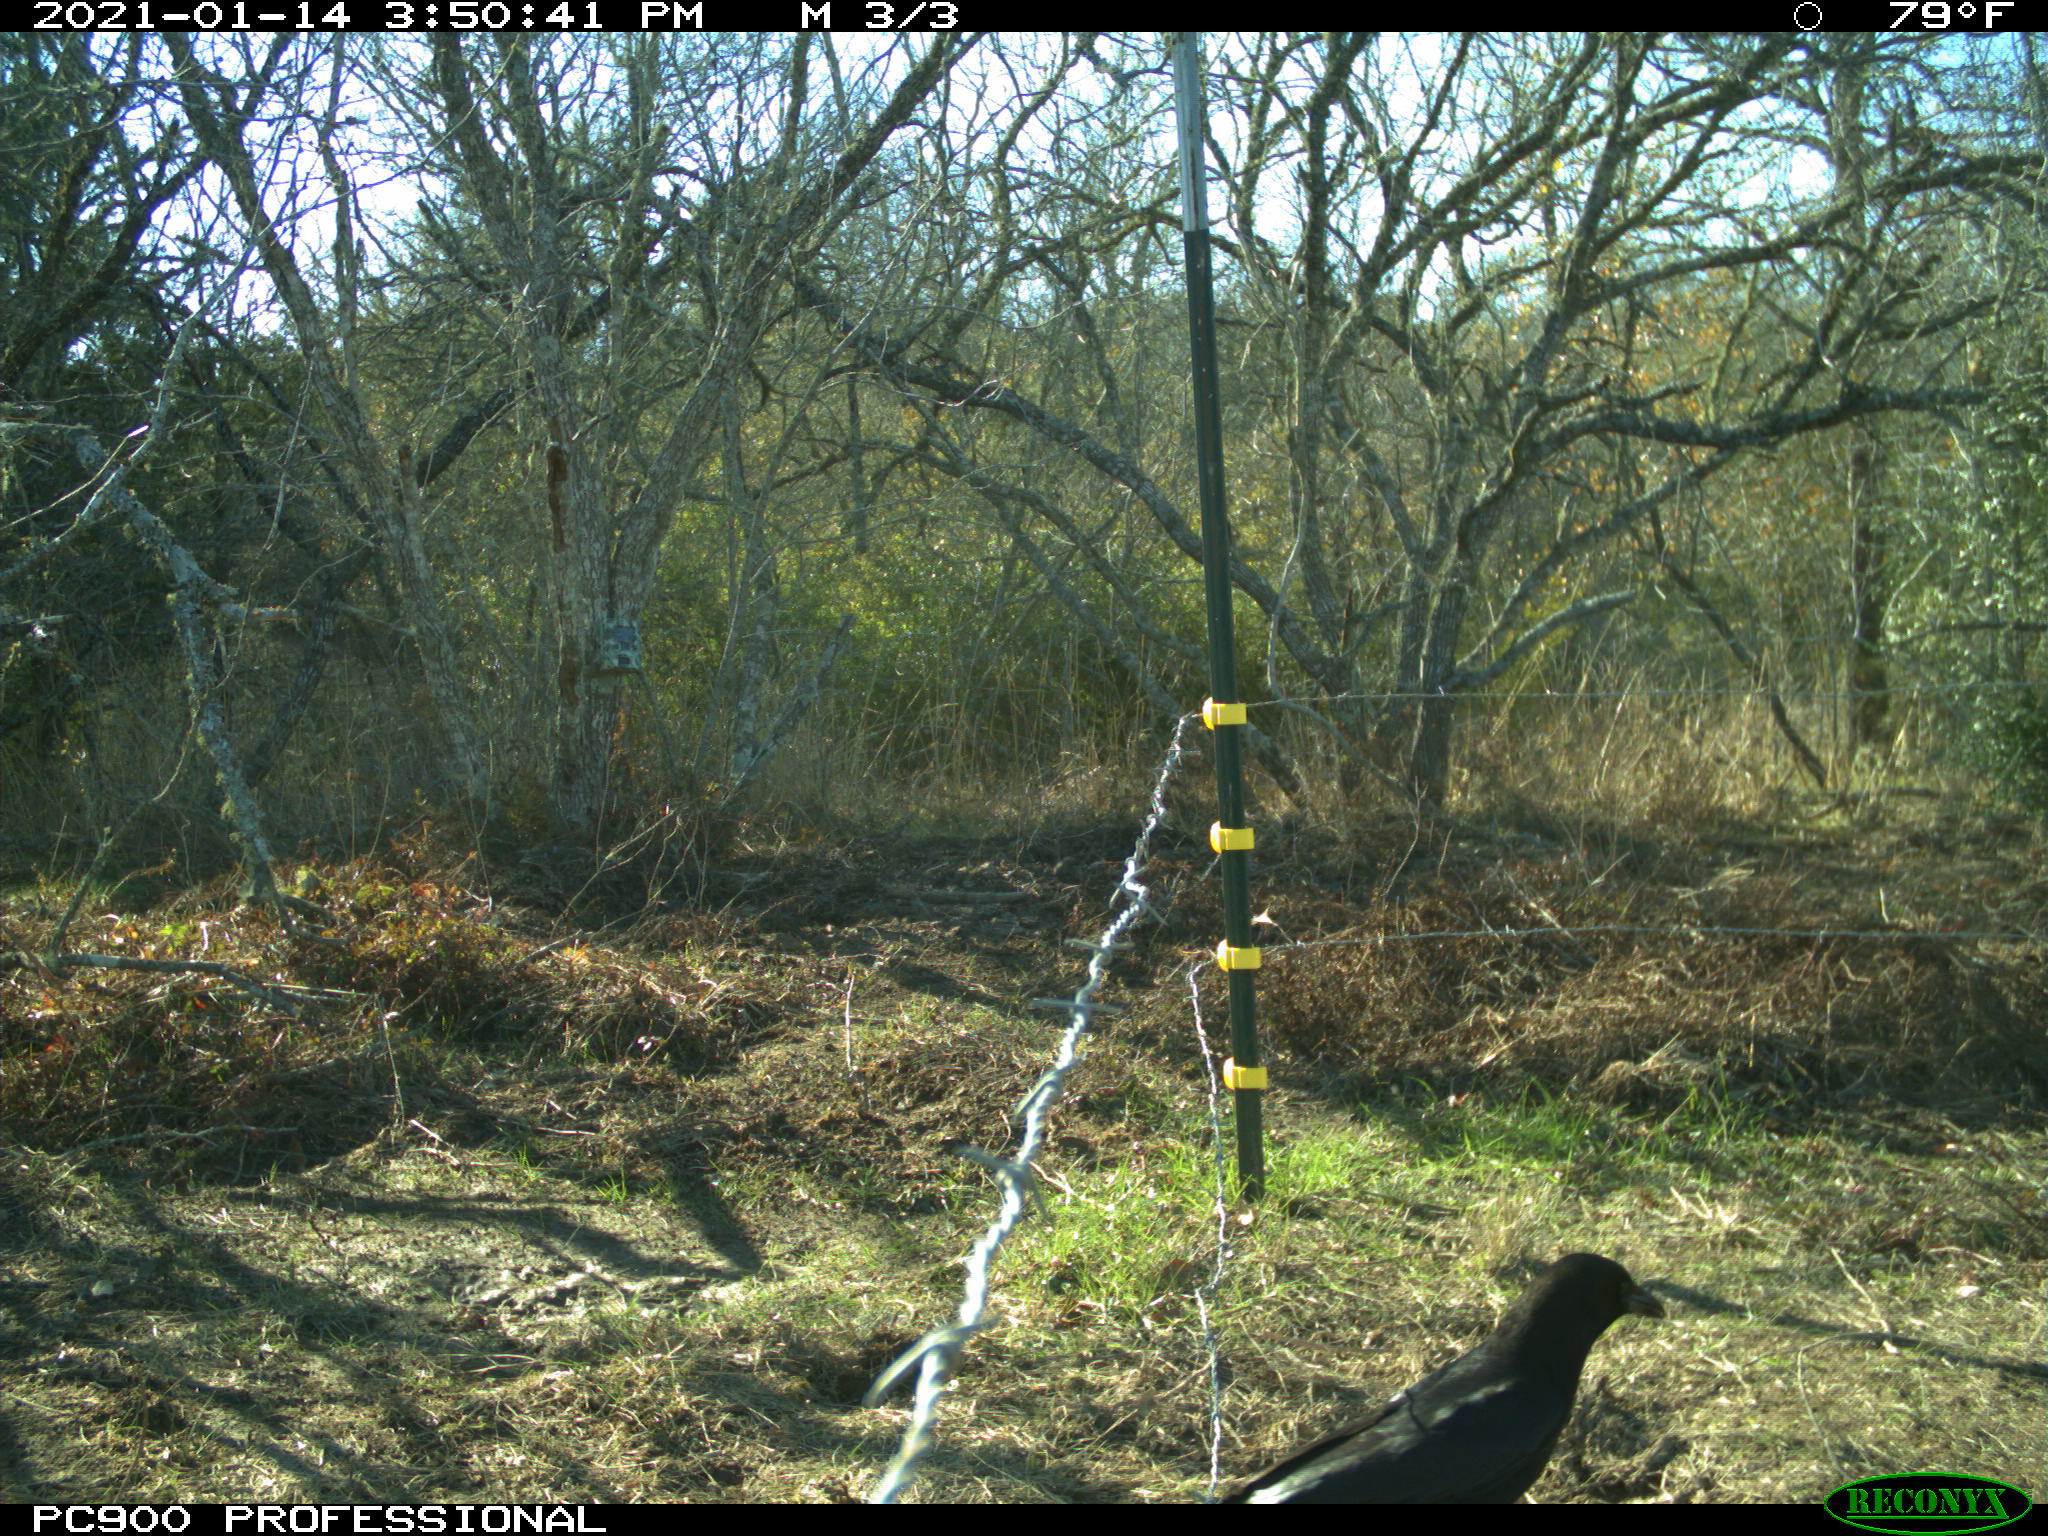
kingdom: Animalia
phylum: Chordata
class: Aves
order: Passeriformes
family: Corvidae
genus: Corvus
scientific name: Corvus brachyrhynchos
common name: American crow
